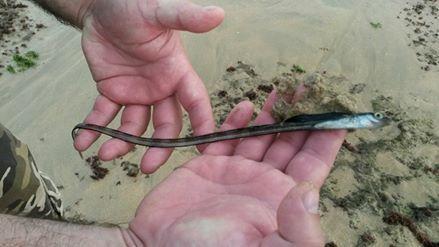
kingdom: Animalia
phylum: Chordata
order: Perciformes
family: Blenniidae
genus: Xiphasia
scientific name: Xiphasia setifer
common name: Hair tailed blenny
